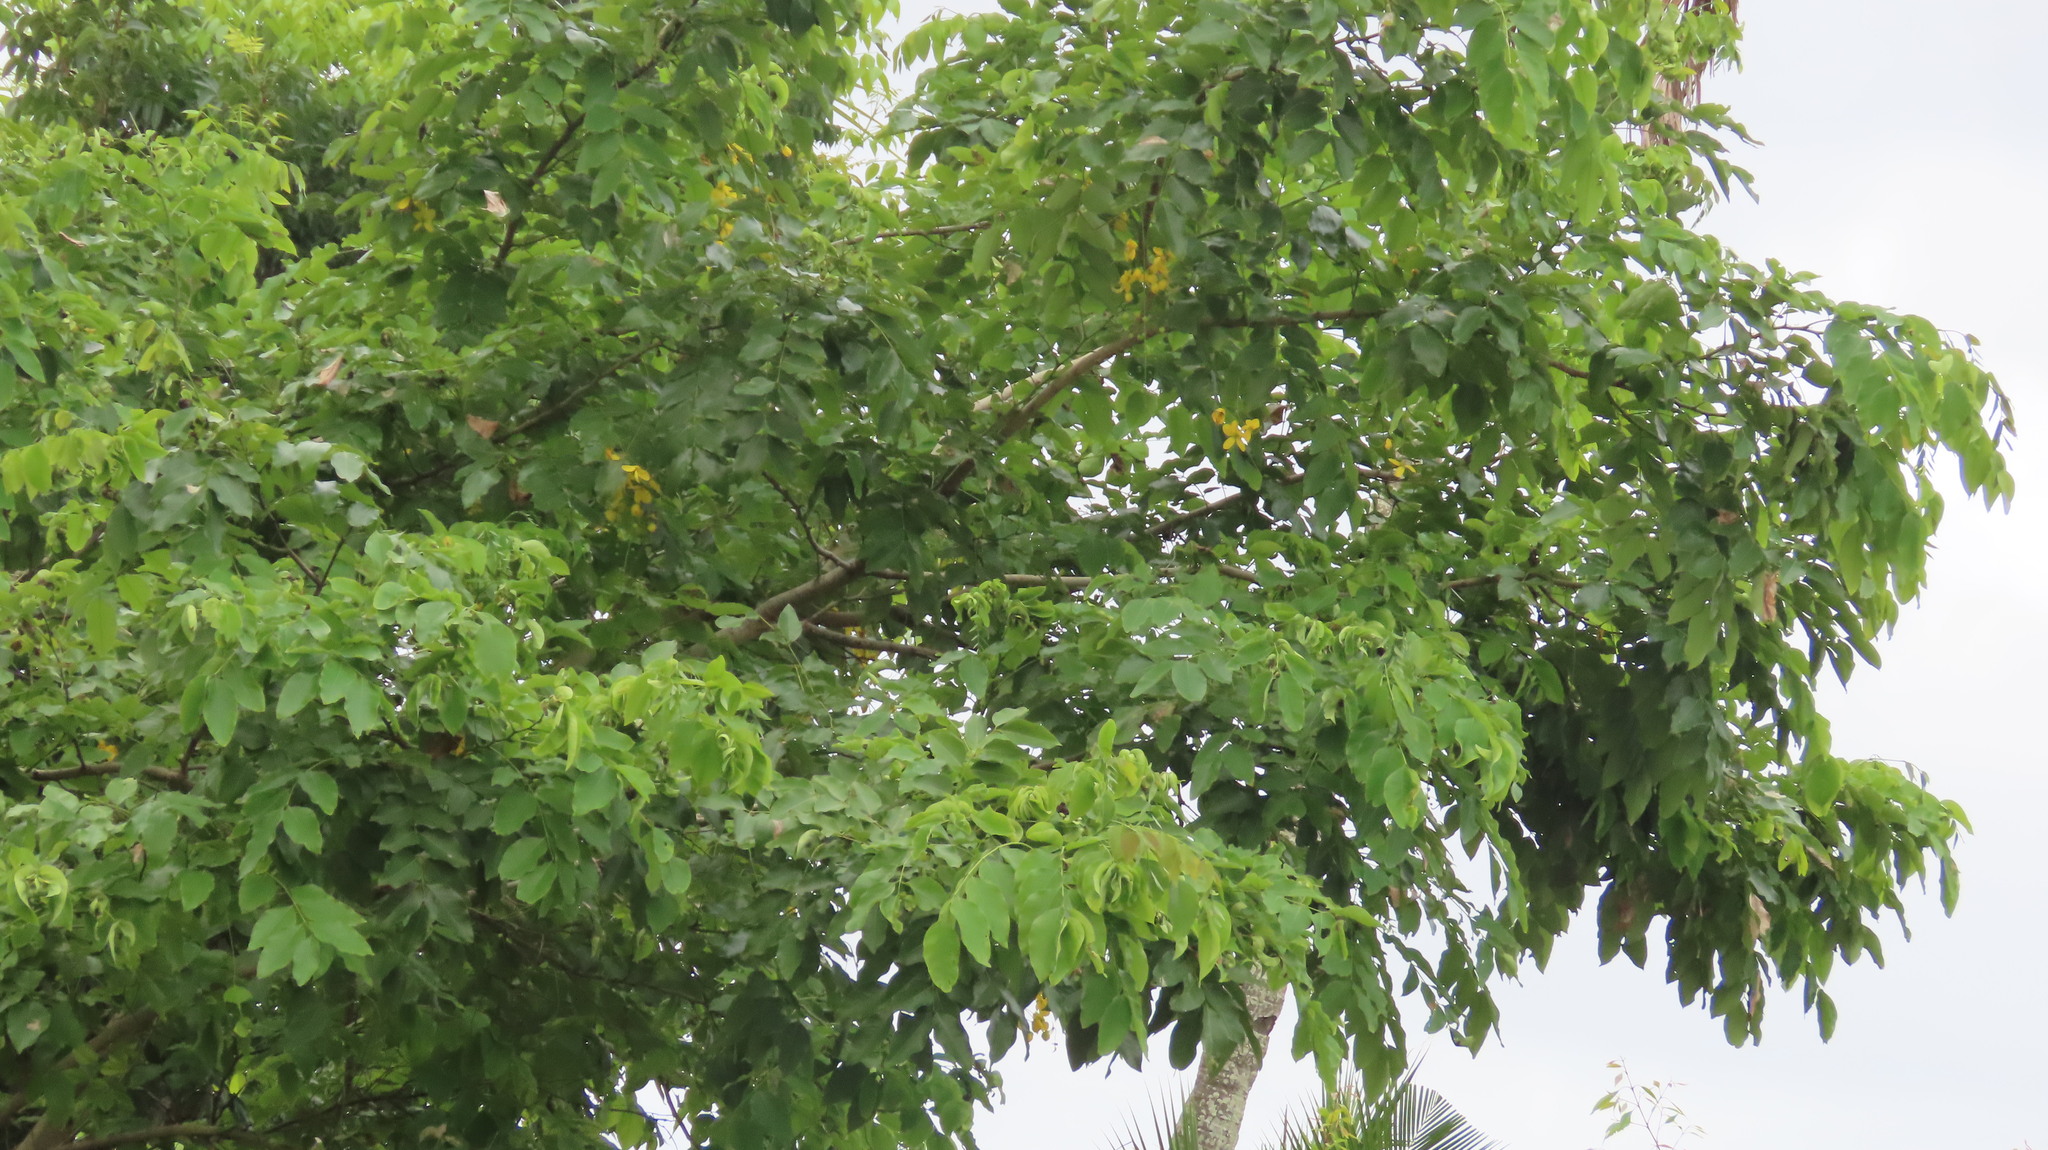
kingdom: Plantae
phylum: Tracheophyta
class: Magnoliopsida
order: Fabales
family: Fabaceae
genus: Cassia
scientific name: Cassia fistula
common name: Golden shower
